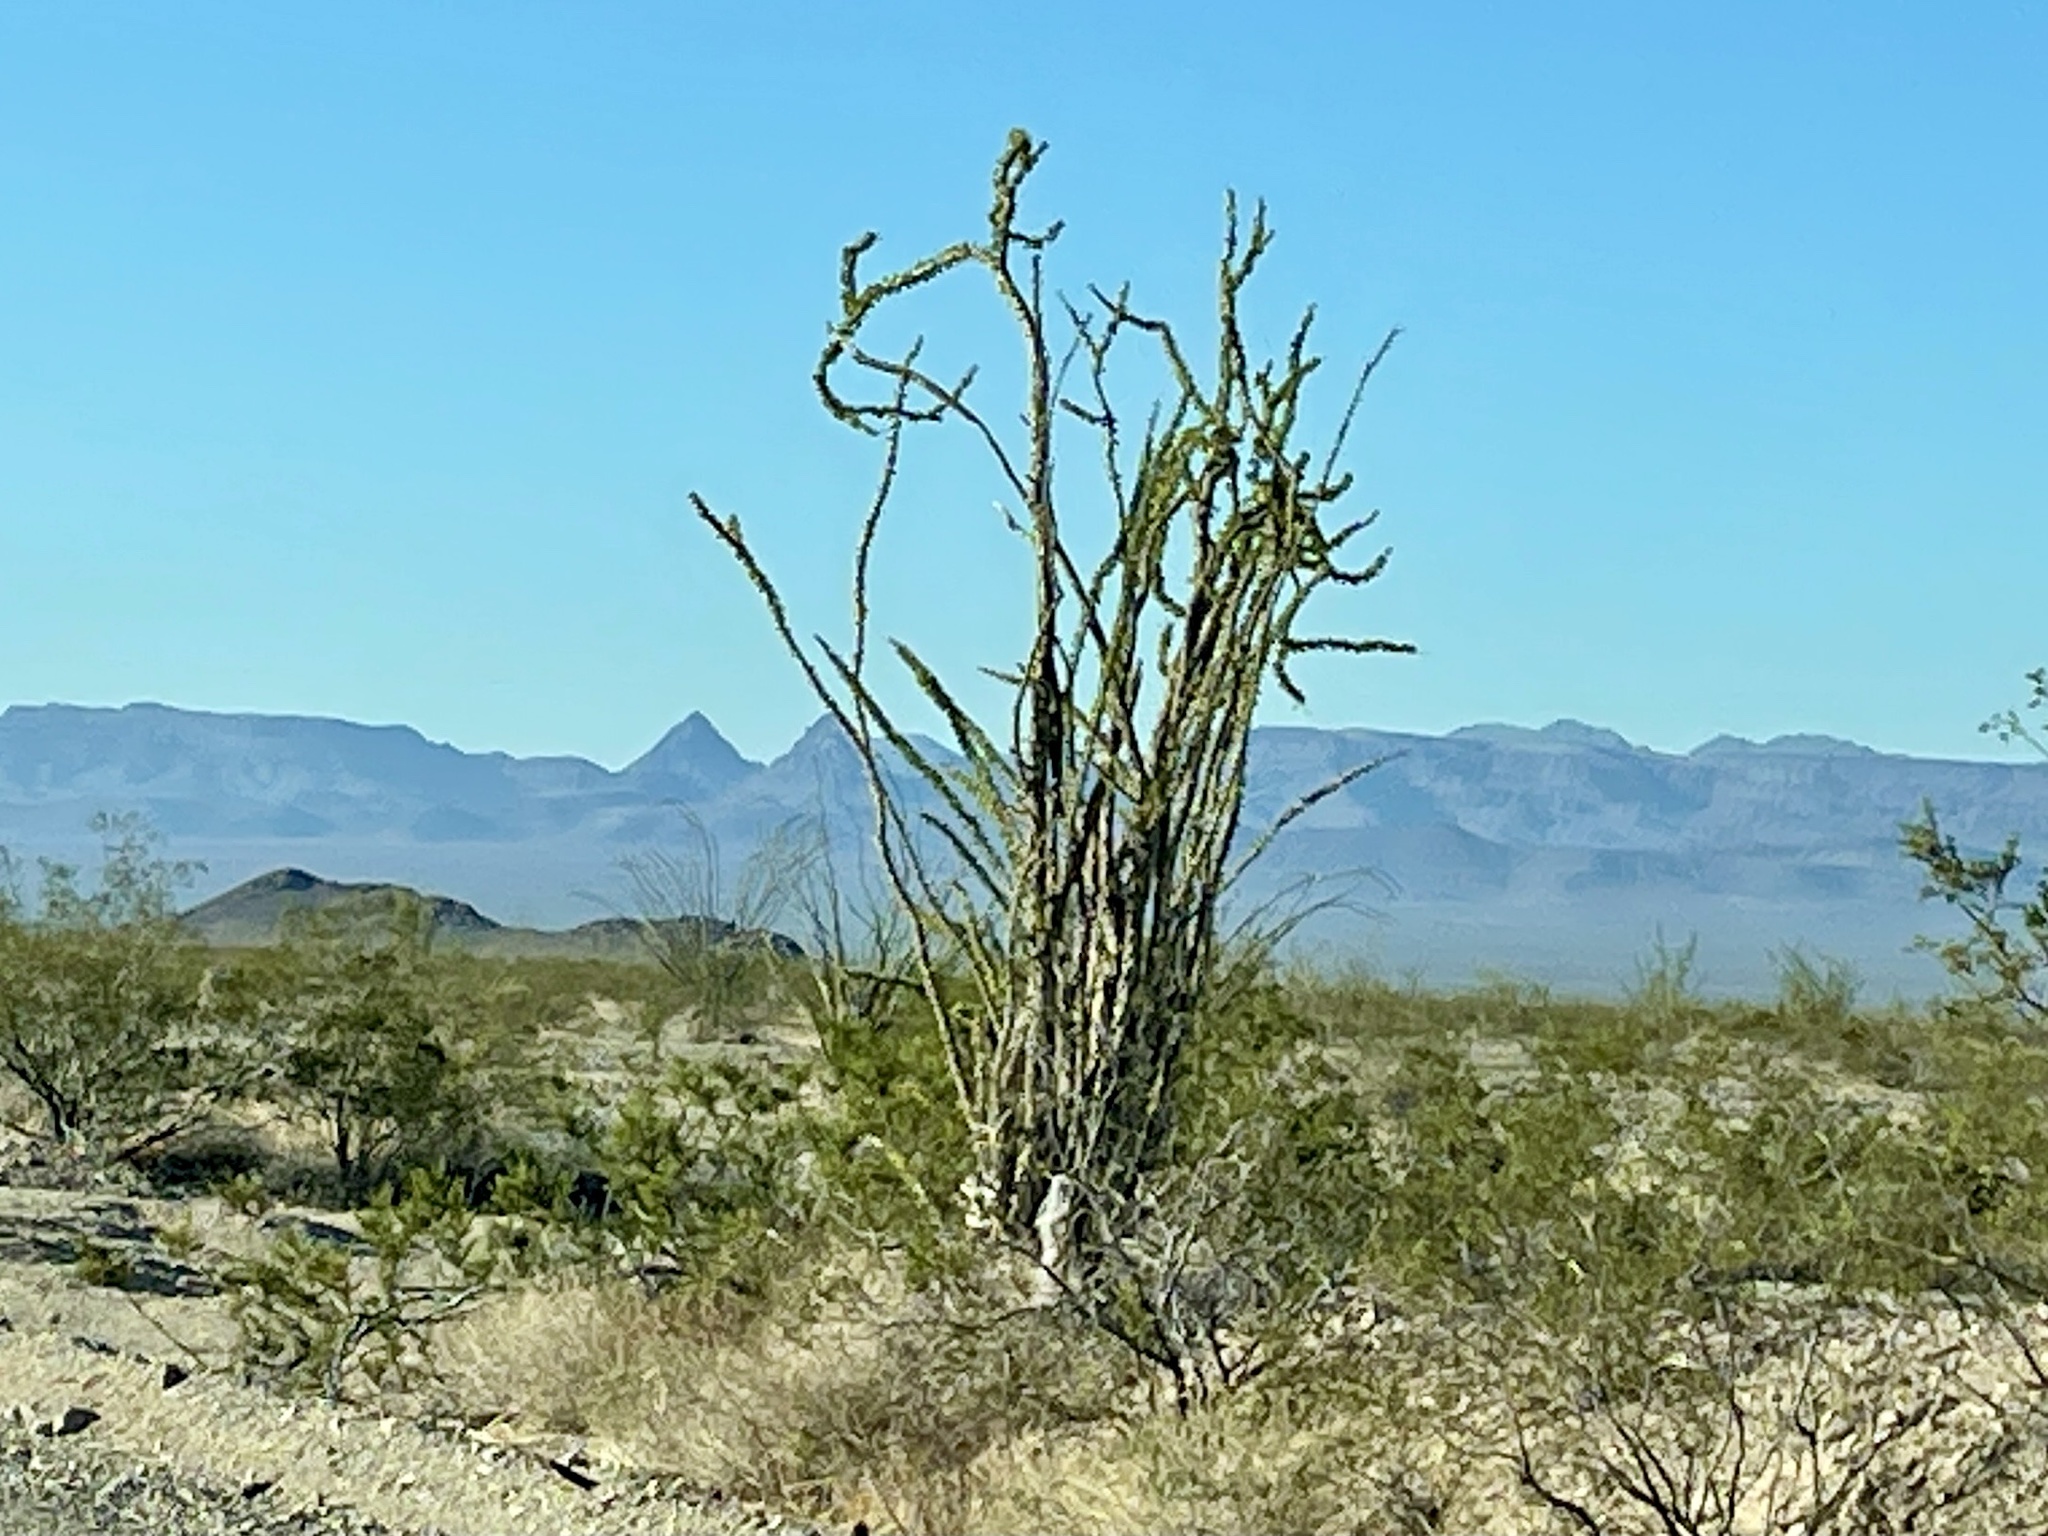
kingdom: Plantae
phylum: Tracheophyta
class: Magnoliopsida
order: Ericales
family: Fouquieriaceae
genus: Fouquieria
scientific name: Fouquieria splendens
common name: Vine-cactus
